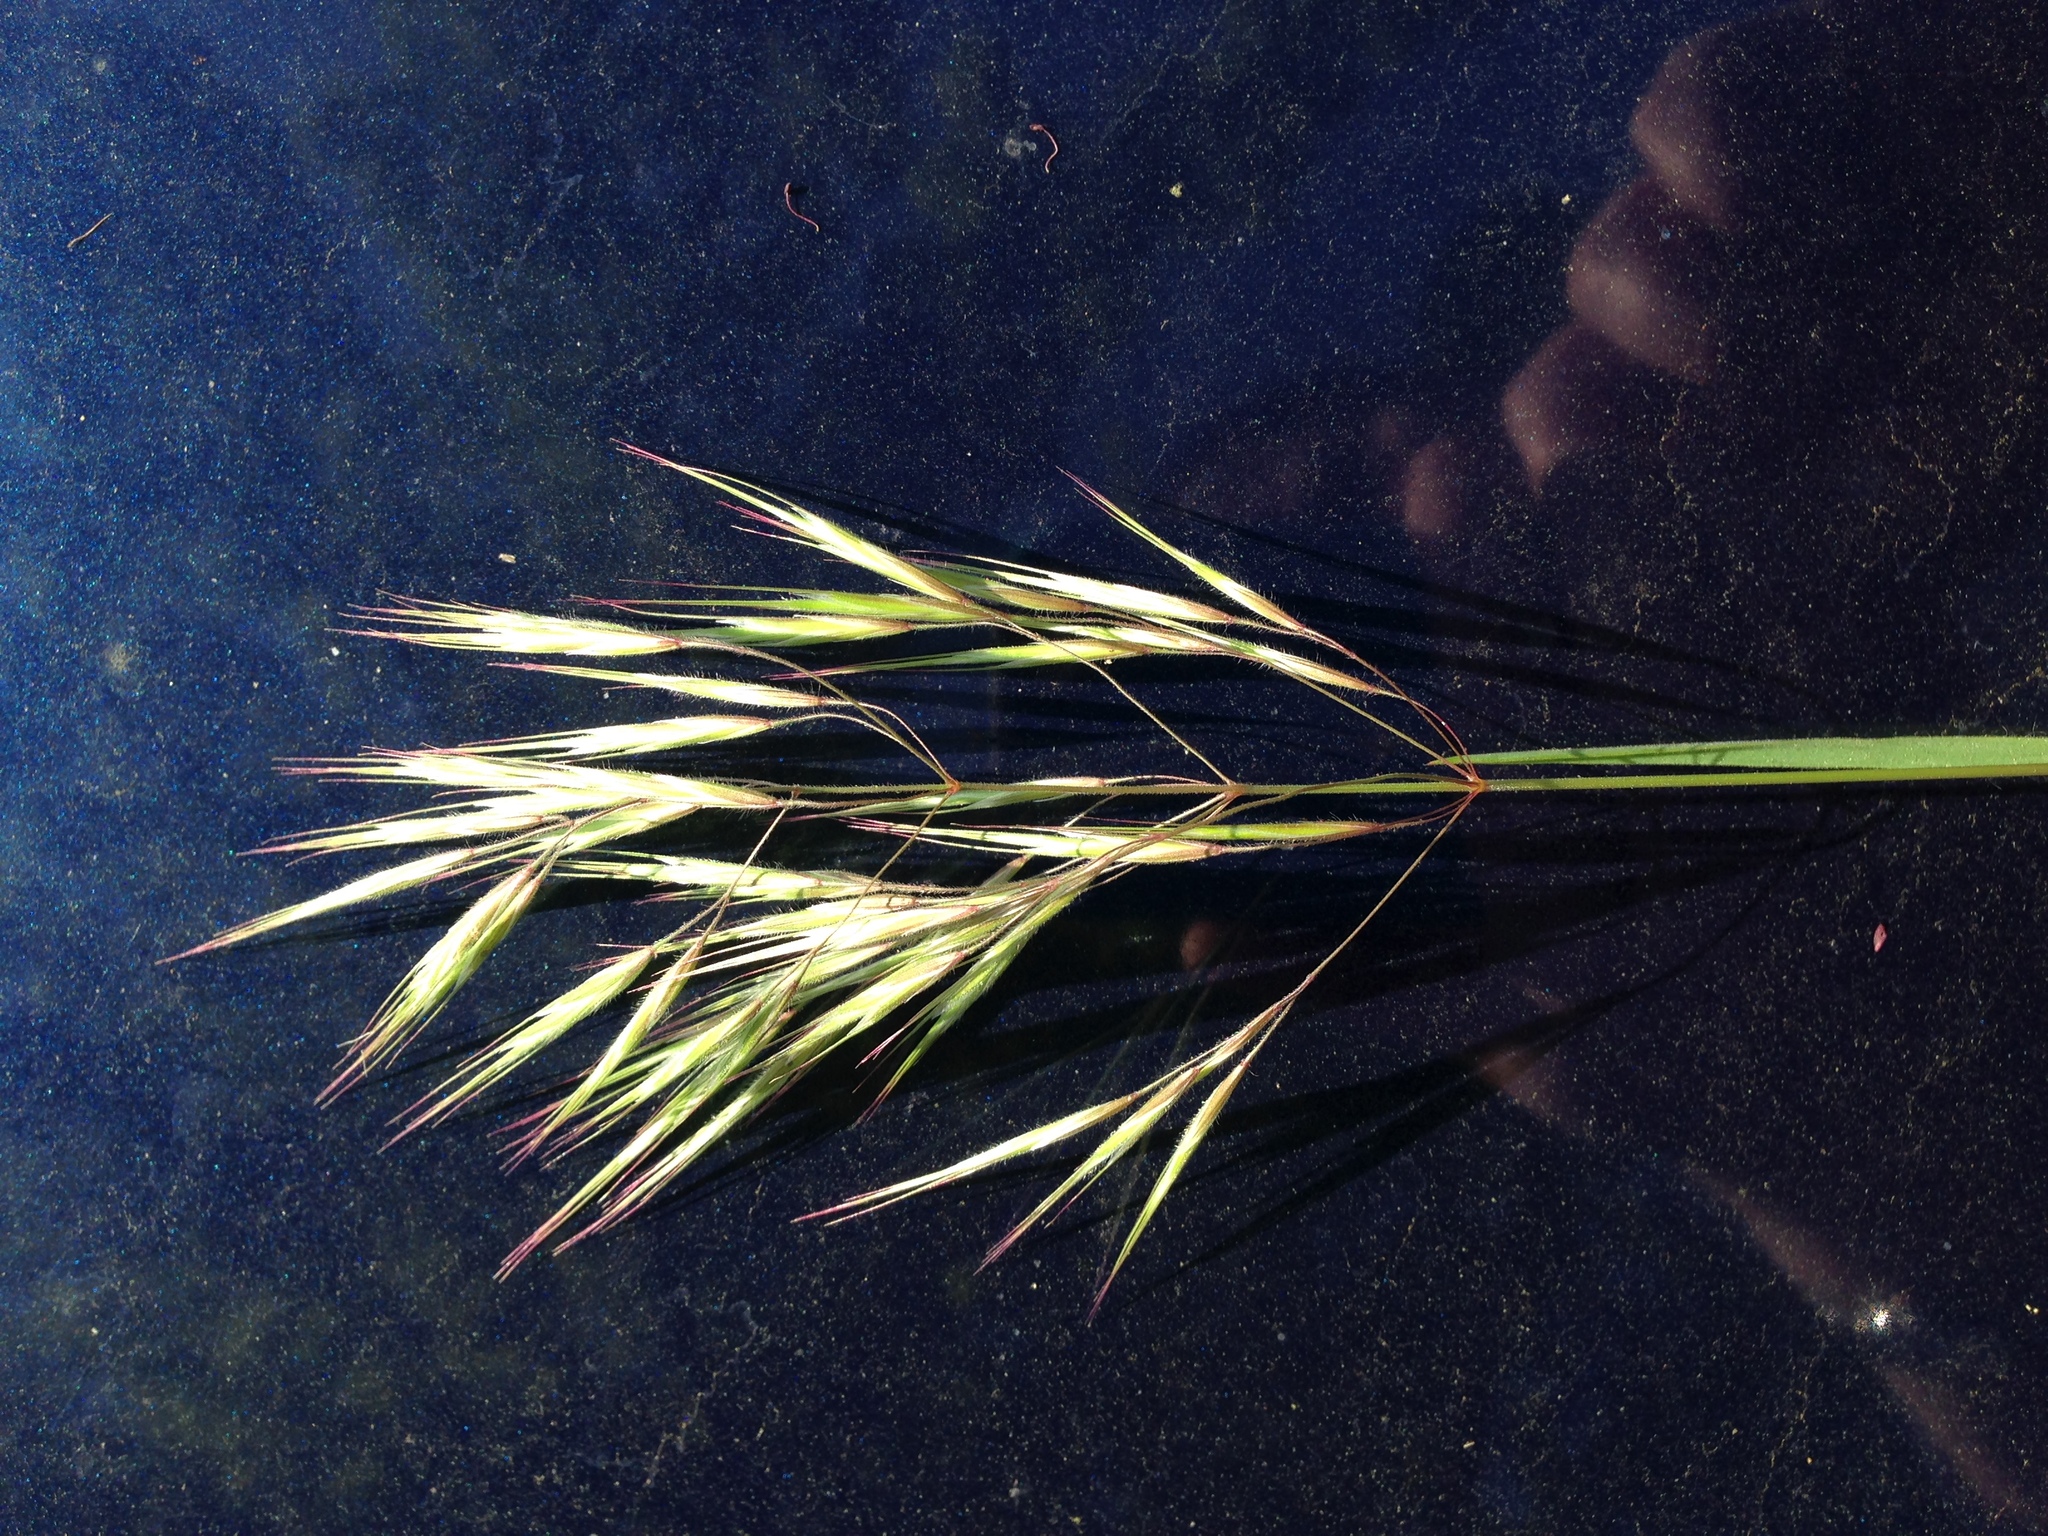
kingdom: Plantae
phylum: Tracheophyta
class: Liliopsida
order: Poales
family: Poaceae
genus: Bromus
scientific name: Bromus tectorum
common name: Cheatgrass
